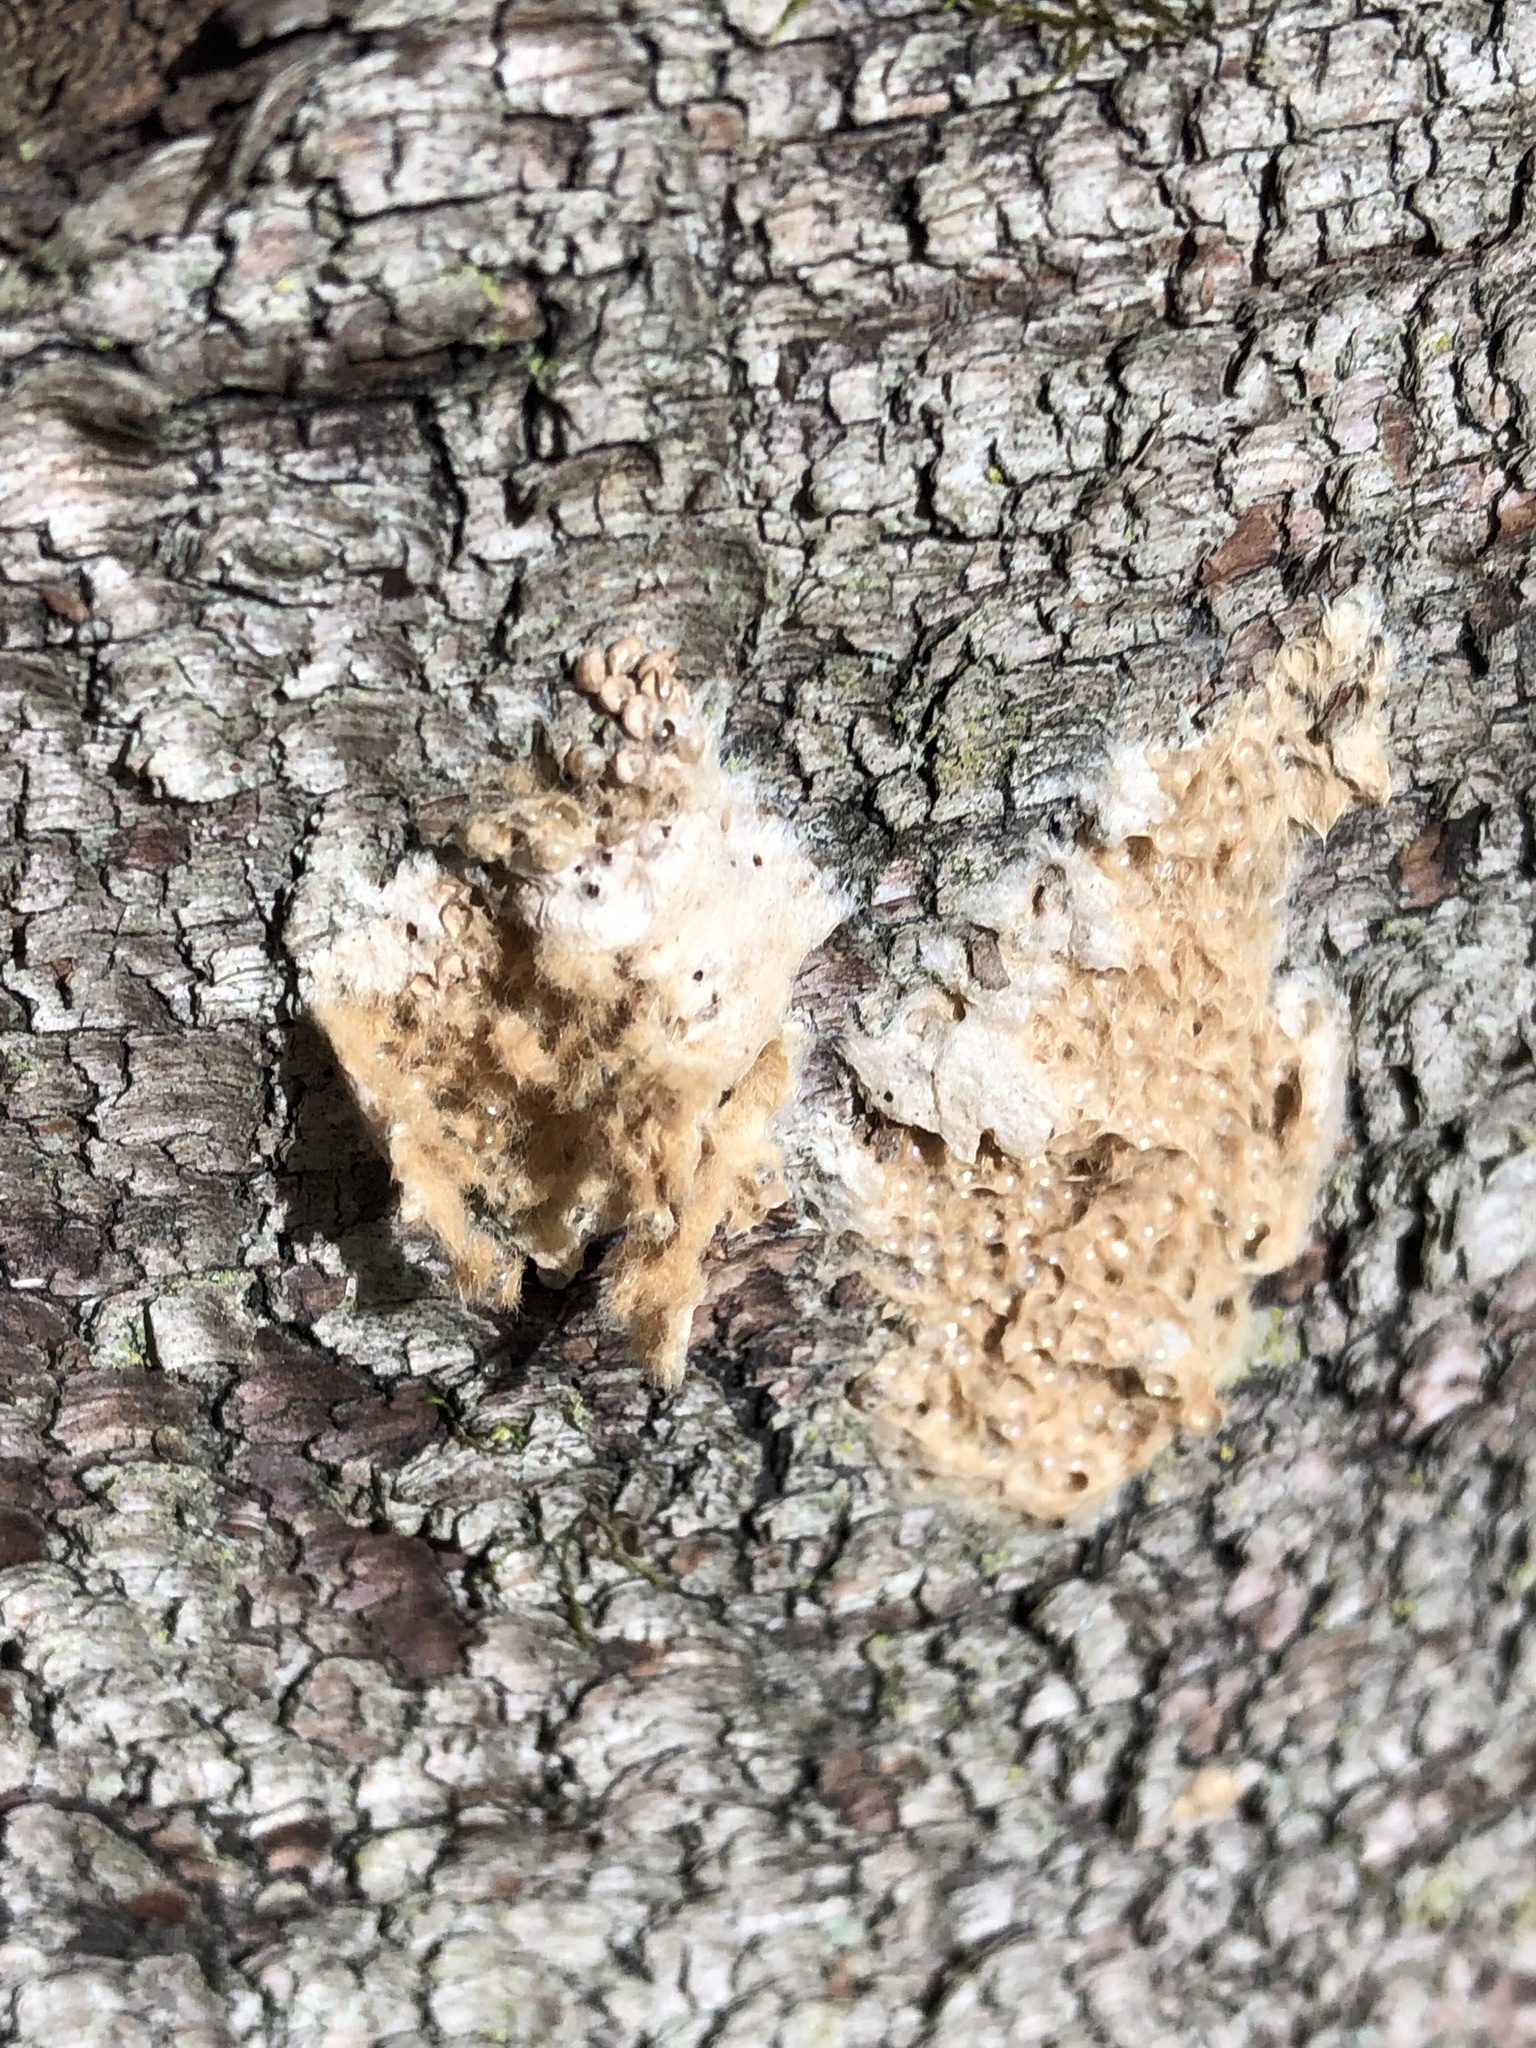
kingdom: Animalia
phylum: Arthropoda
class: Insecta
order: Lepidoptera
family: Erebidae
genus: Lymantria
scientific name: Lymantria dispar
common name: Gypsy moth
